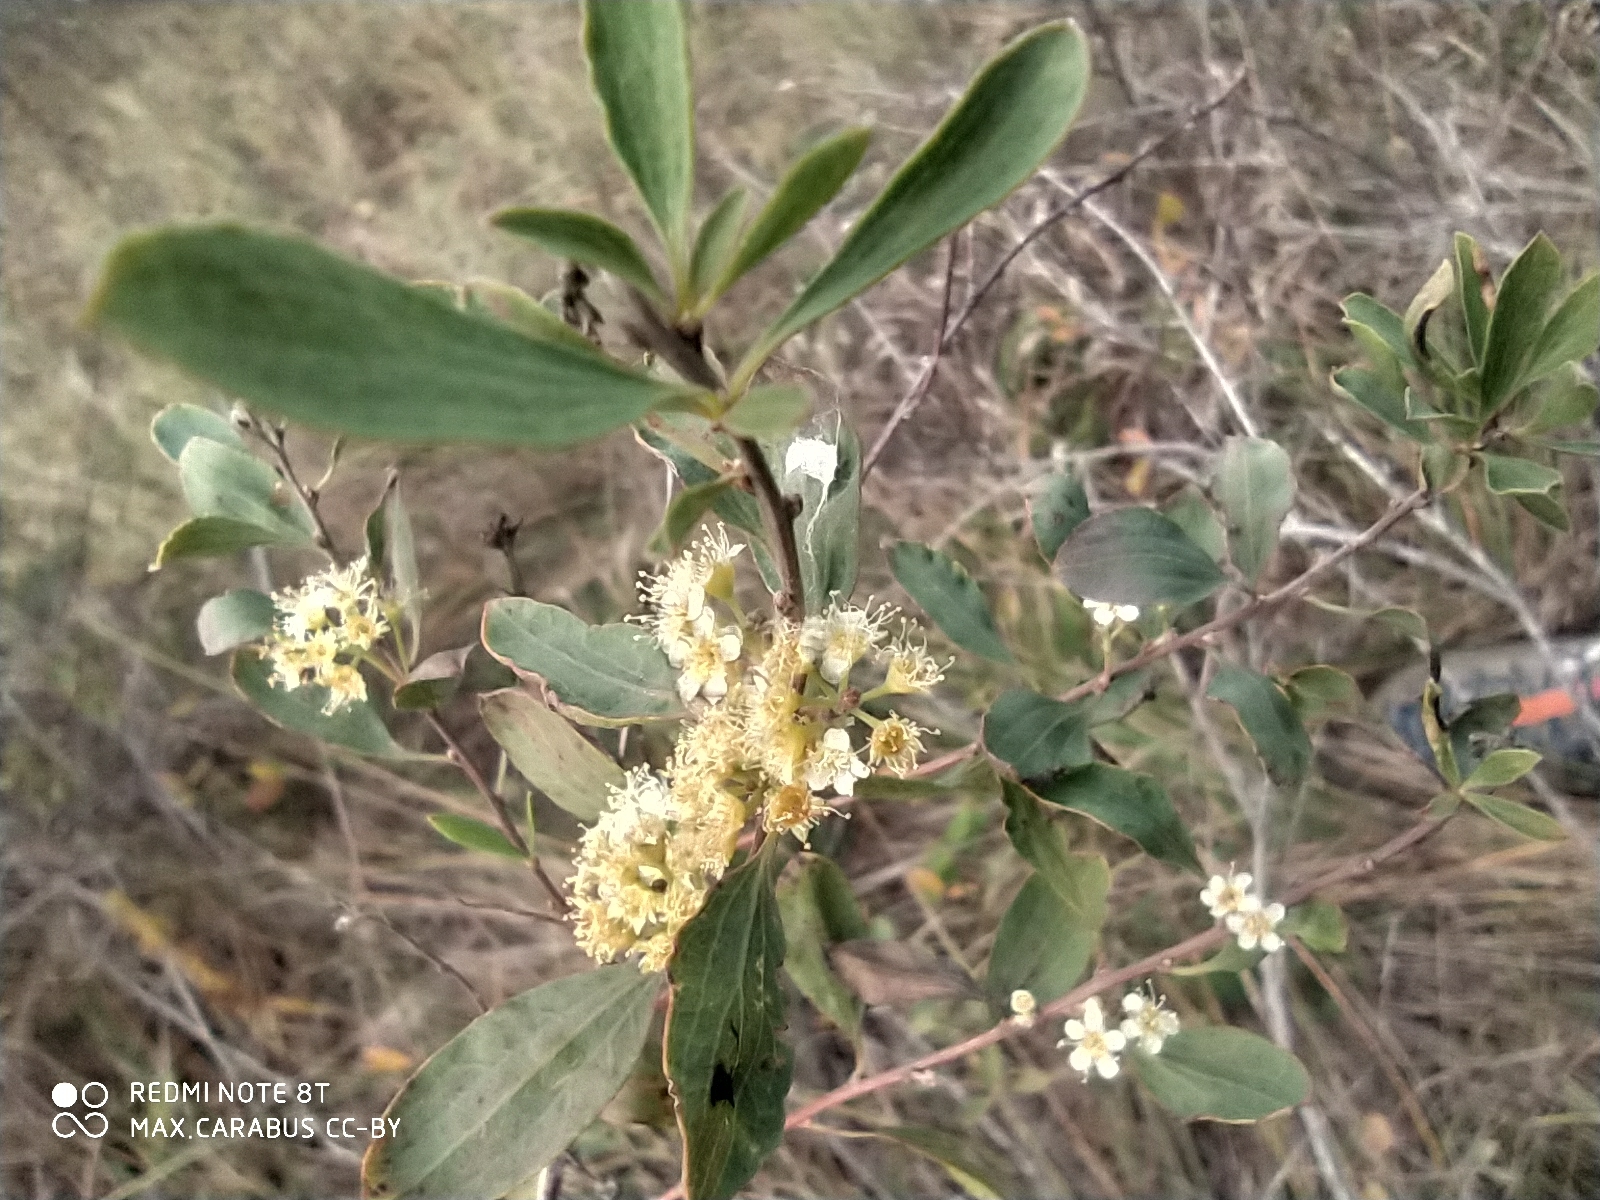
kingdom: Plantae
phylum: Tracheophyta
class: Magnoliopsida
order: Rosales
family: Rosaceae
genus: Spiraea
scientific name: Spiraea crenata
